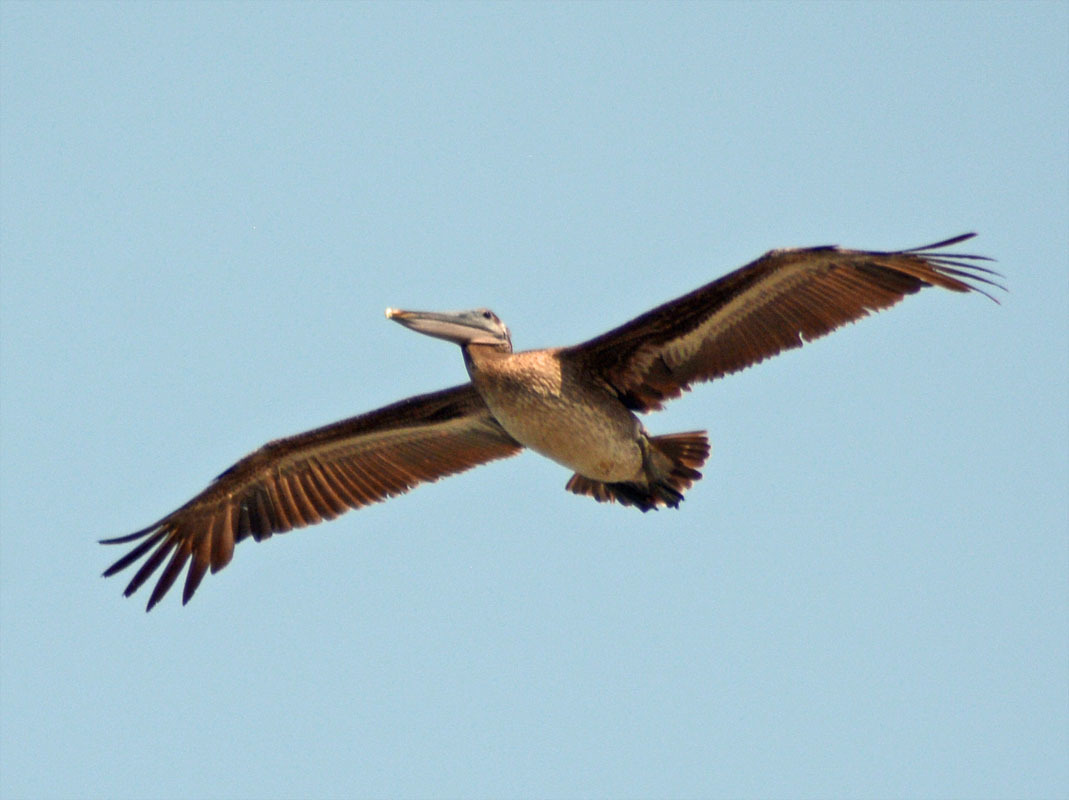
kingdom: Animalia
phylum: Chordata
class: Aves
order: Pelecaniformes
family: Pelecanidae
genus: Pelecanus
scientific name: Pelecanus occidentalis
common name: Brown pelican
